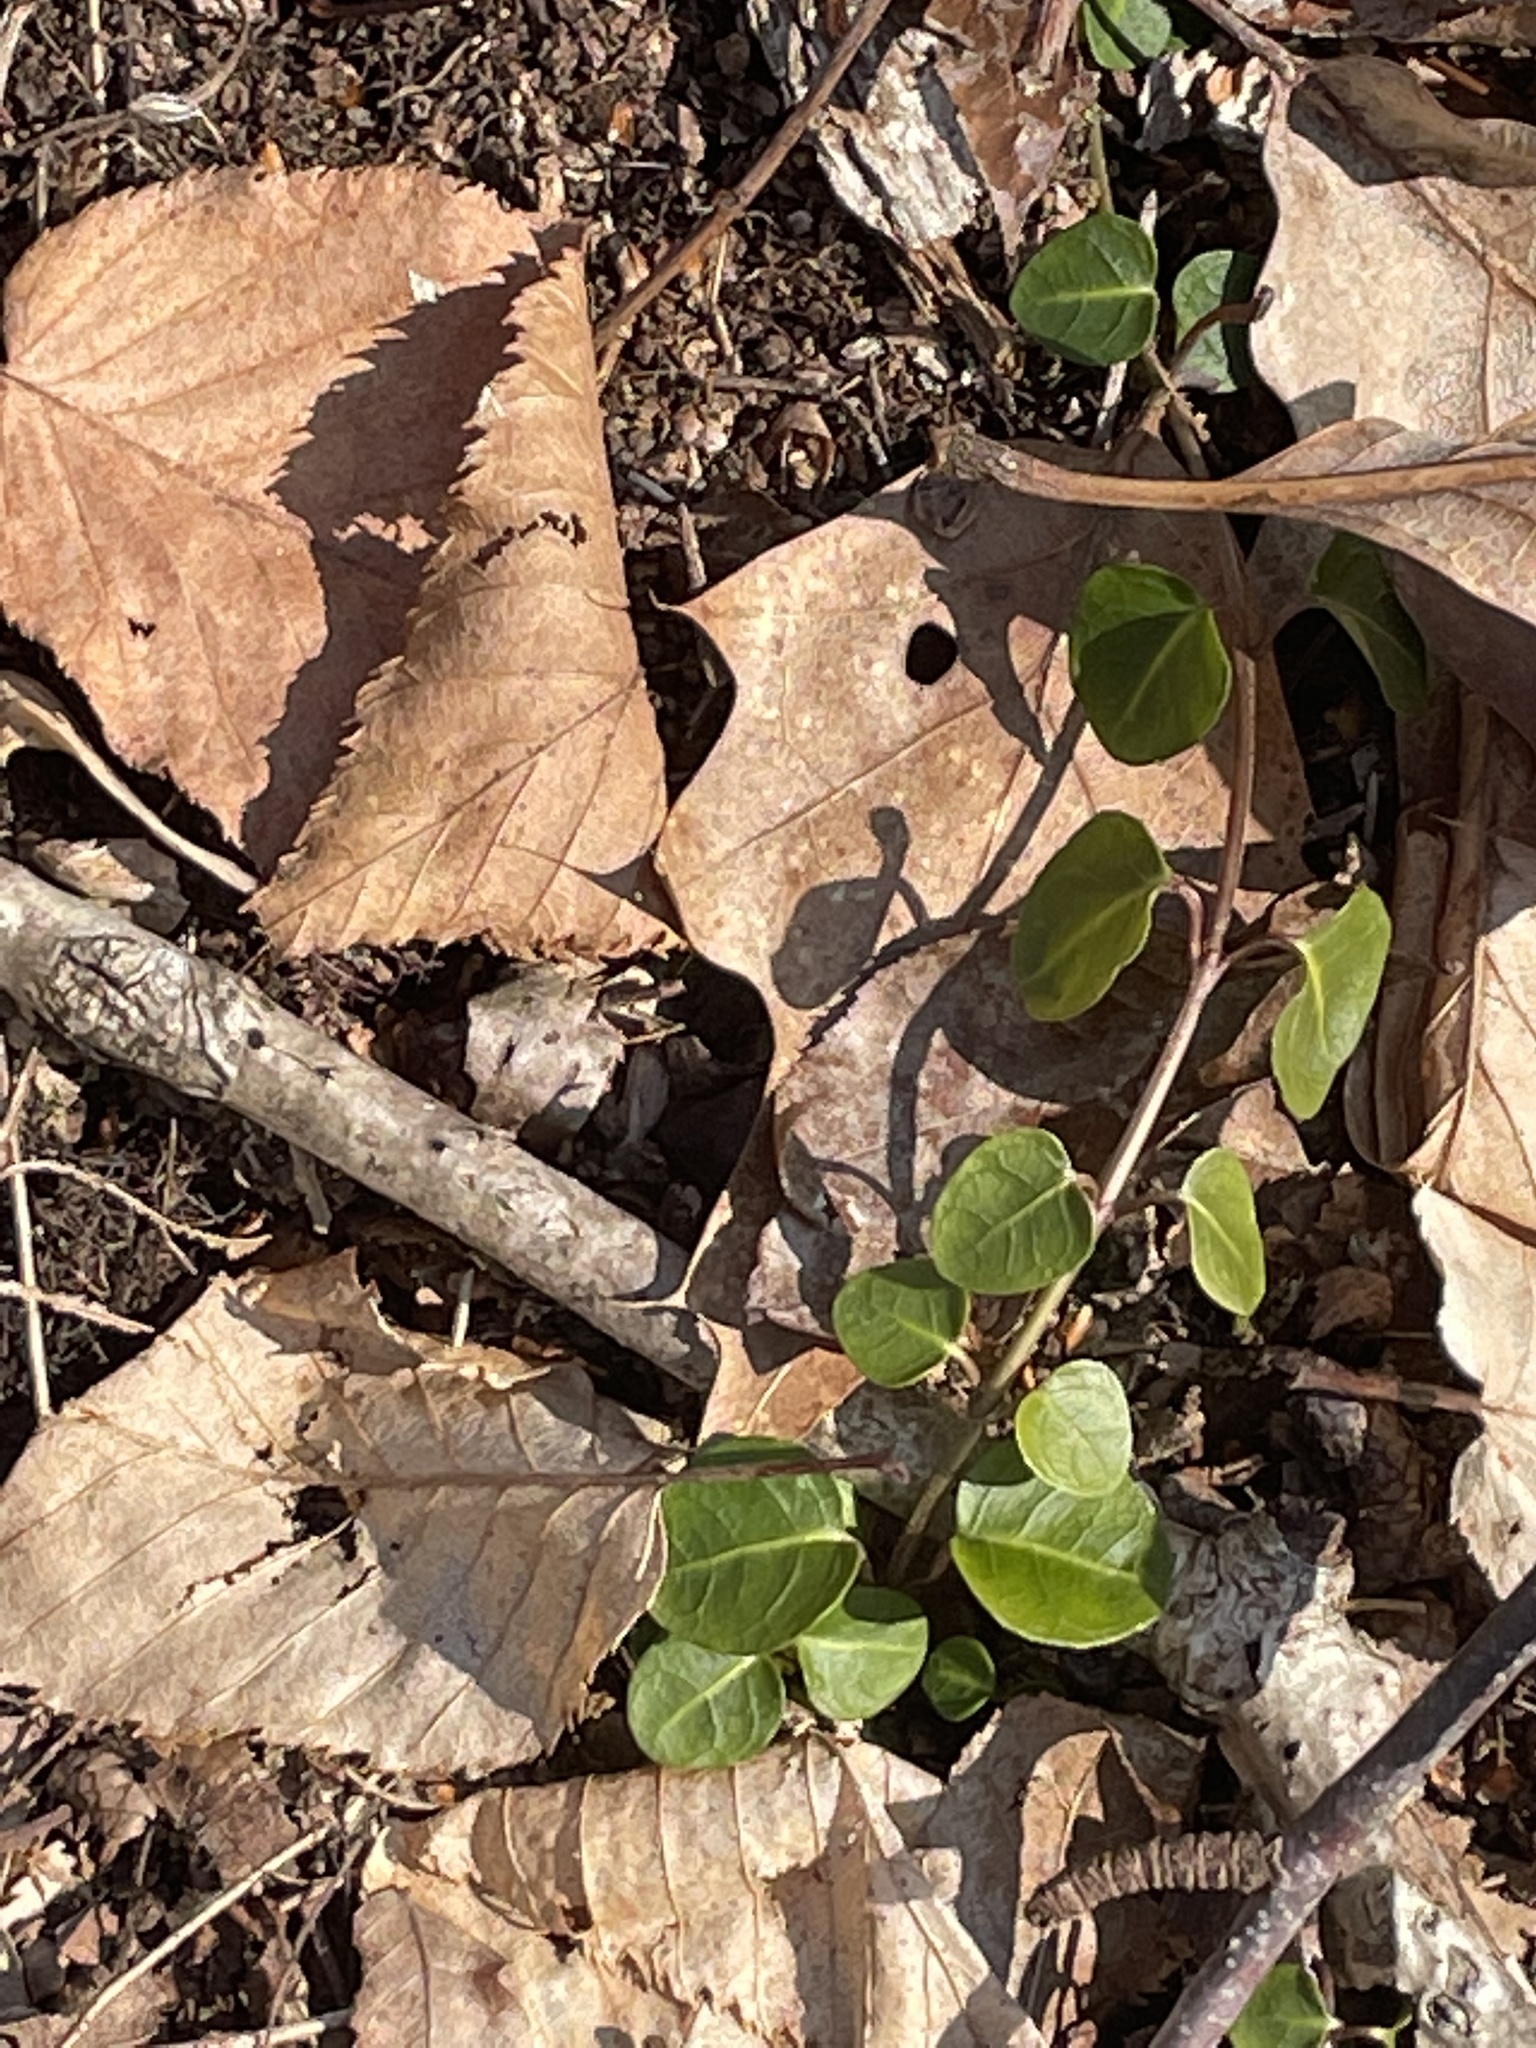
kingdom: Plantae
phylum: Tracheophyta
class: Magnoliopsida
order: Gentianales
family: Rubiaceae
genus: Mitchella
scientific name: Mitchella repens
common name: Partridge-berry
